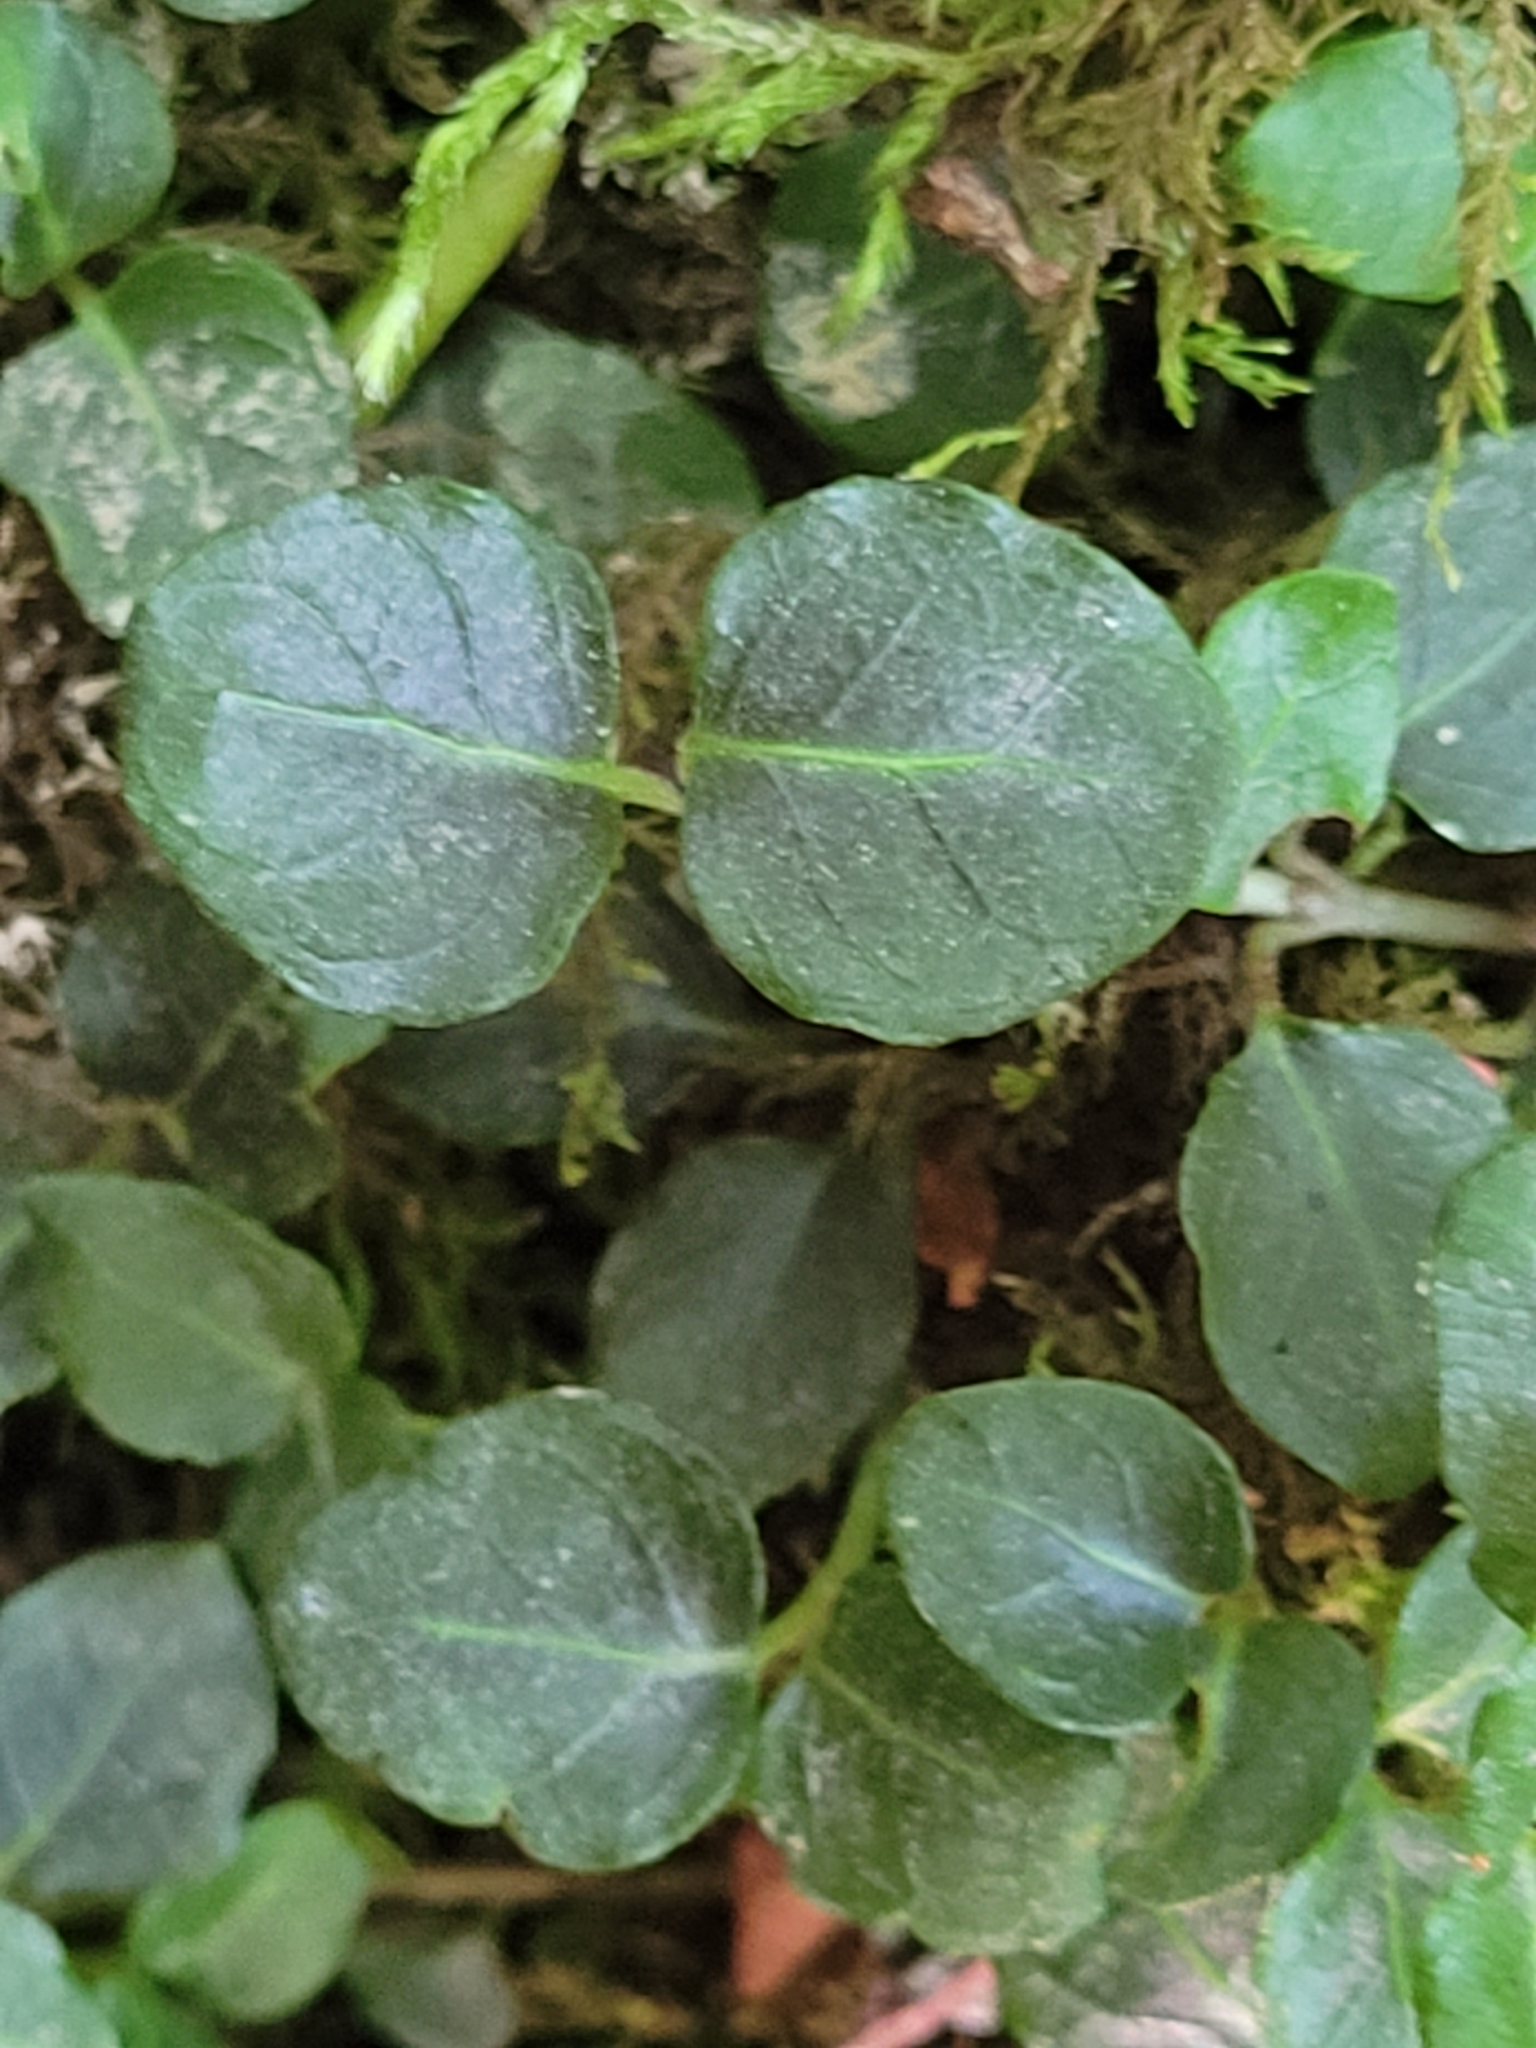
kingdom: Plantae
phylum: Tracheophyta
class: Magnoliopsida
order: Gentianales
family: Rubiaceae
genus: Mitchella
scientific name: Mitchella repens
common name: Partridge-berry
